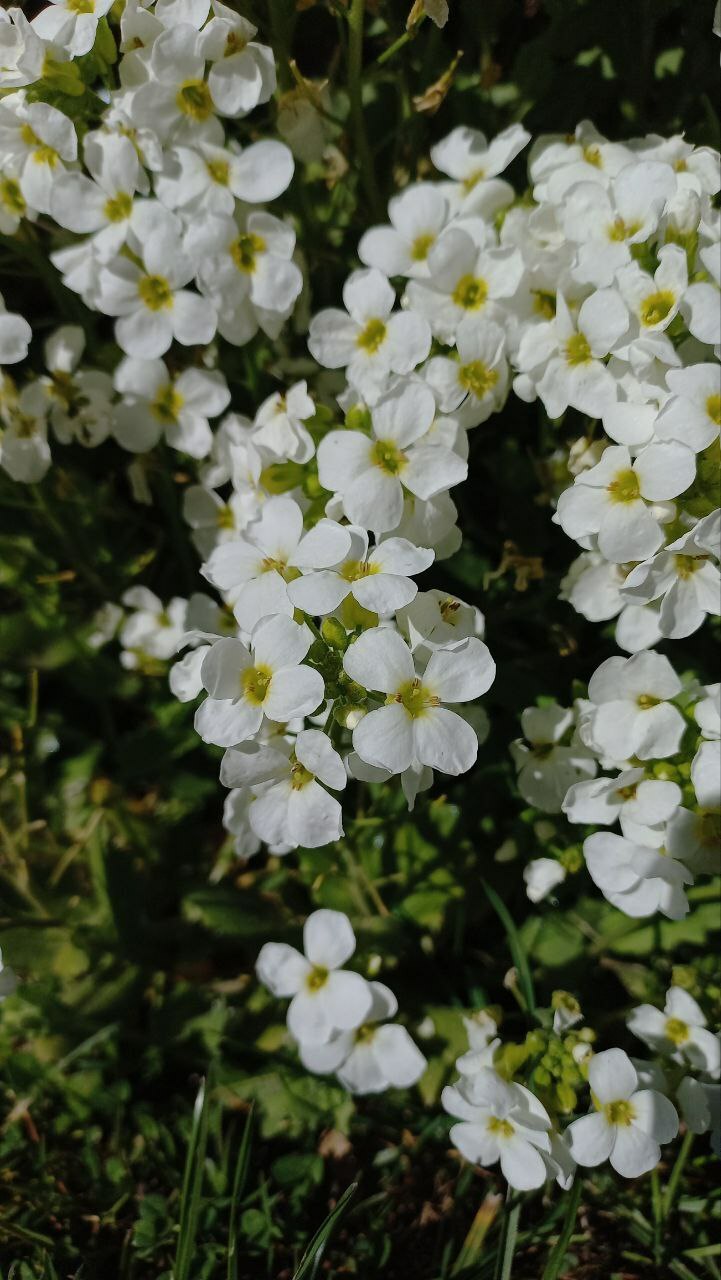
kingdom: Plantae
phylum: Tracheophyta
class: Magnoliopsida
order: Brassicales
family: Brassicaceae
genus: Arabis
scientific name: Arabis caucasica
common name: Gray rockcress
